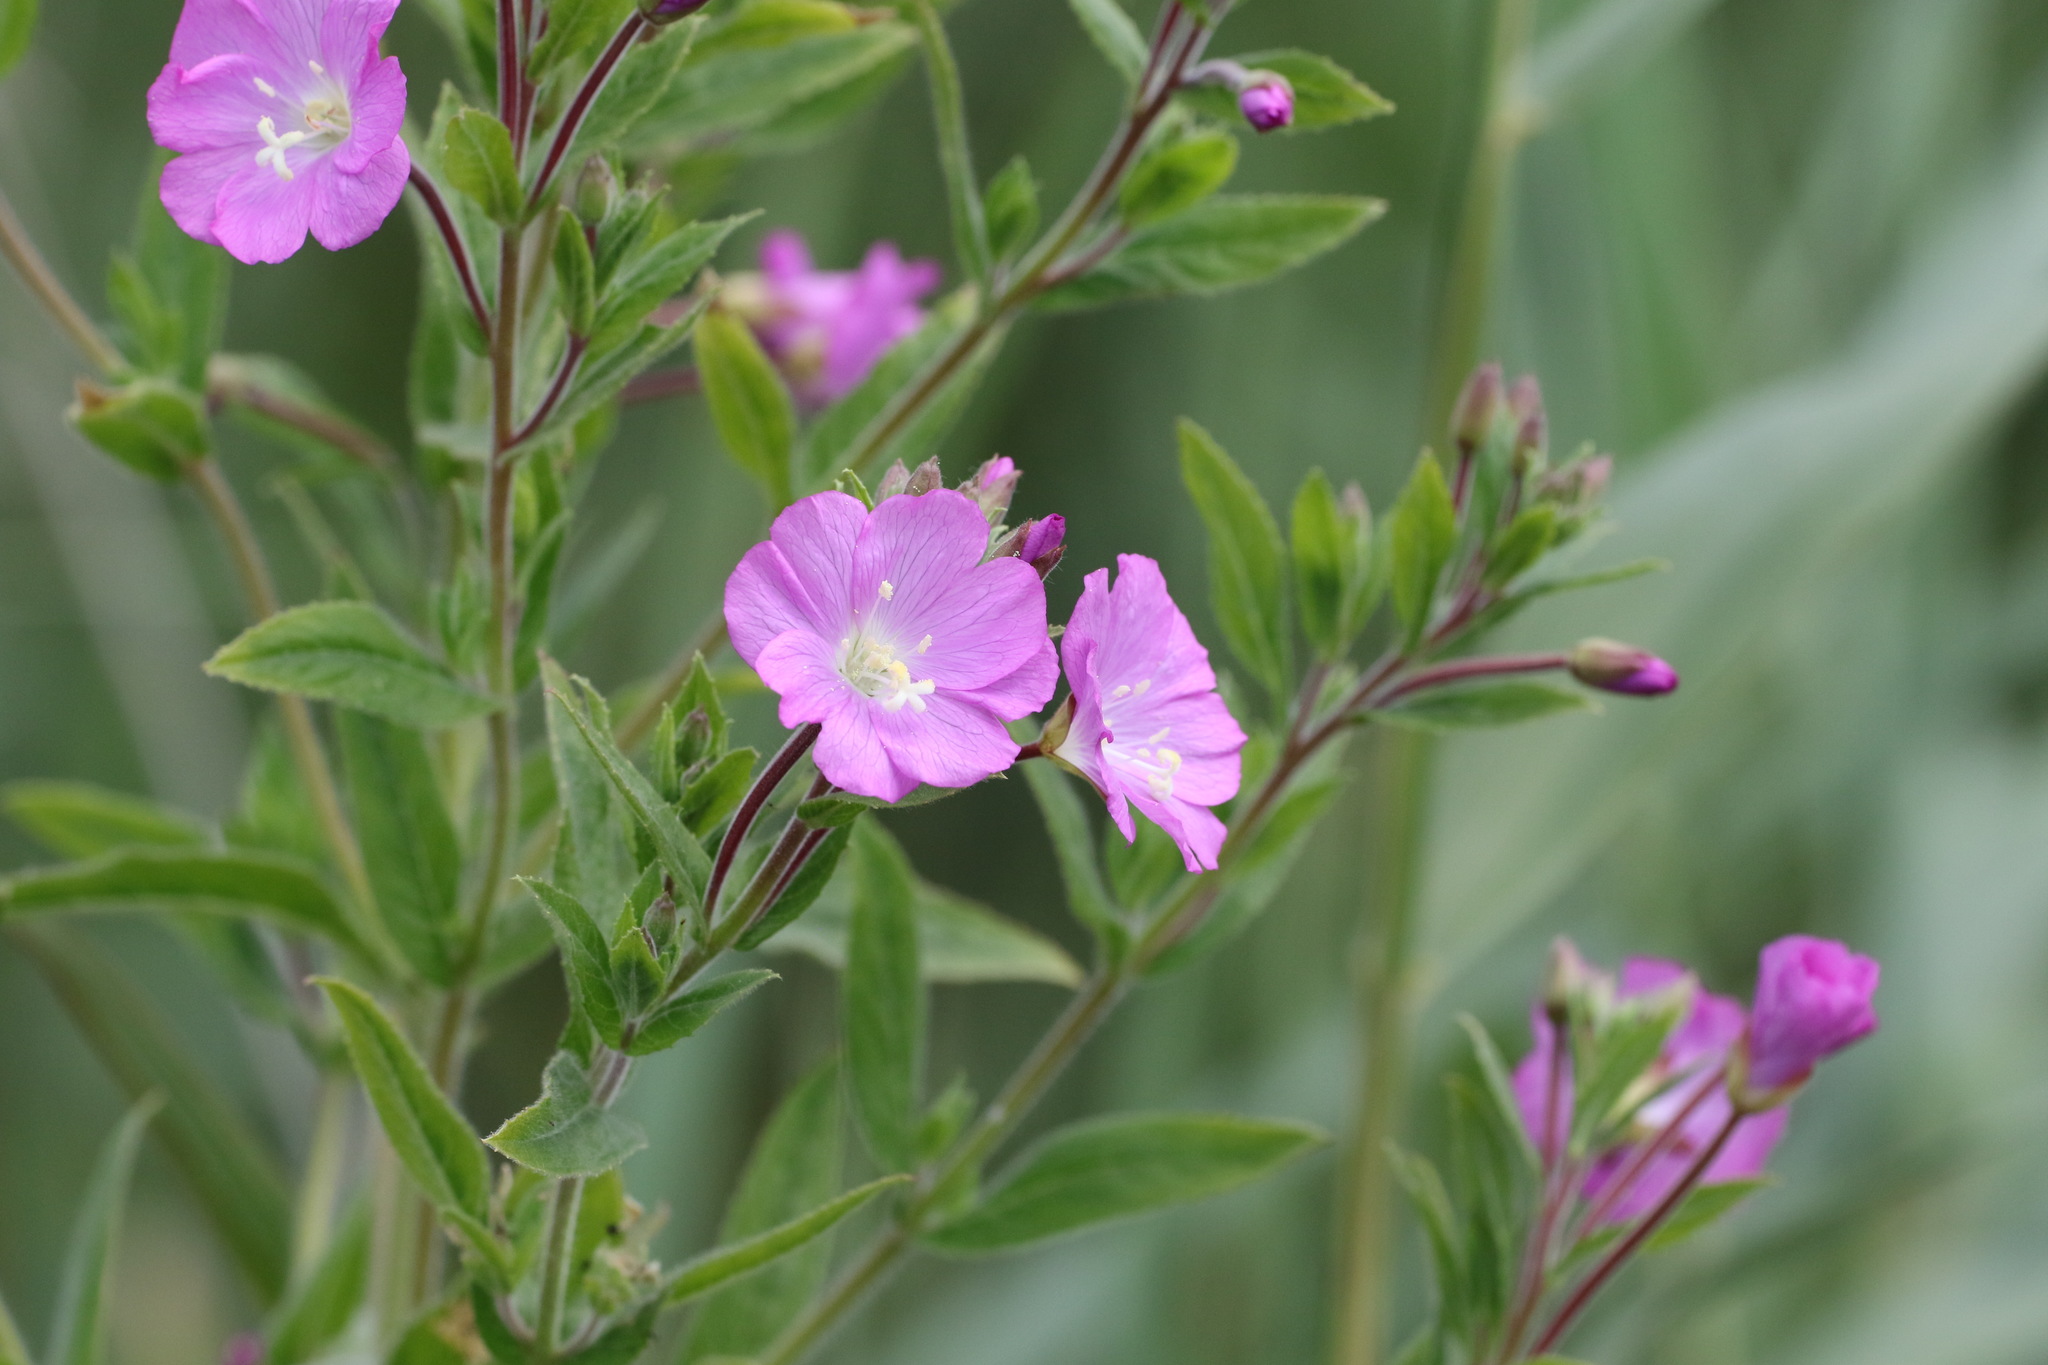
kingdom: Plantae
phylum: Tracheophyta
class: Magnoliopsida
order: Myrtales
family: Onagraceae
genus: Epilobium
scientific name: Epilobium hirsutum
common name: Great willowherb
